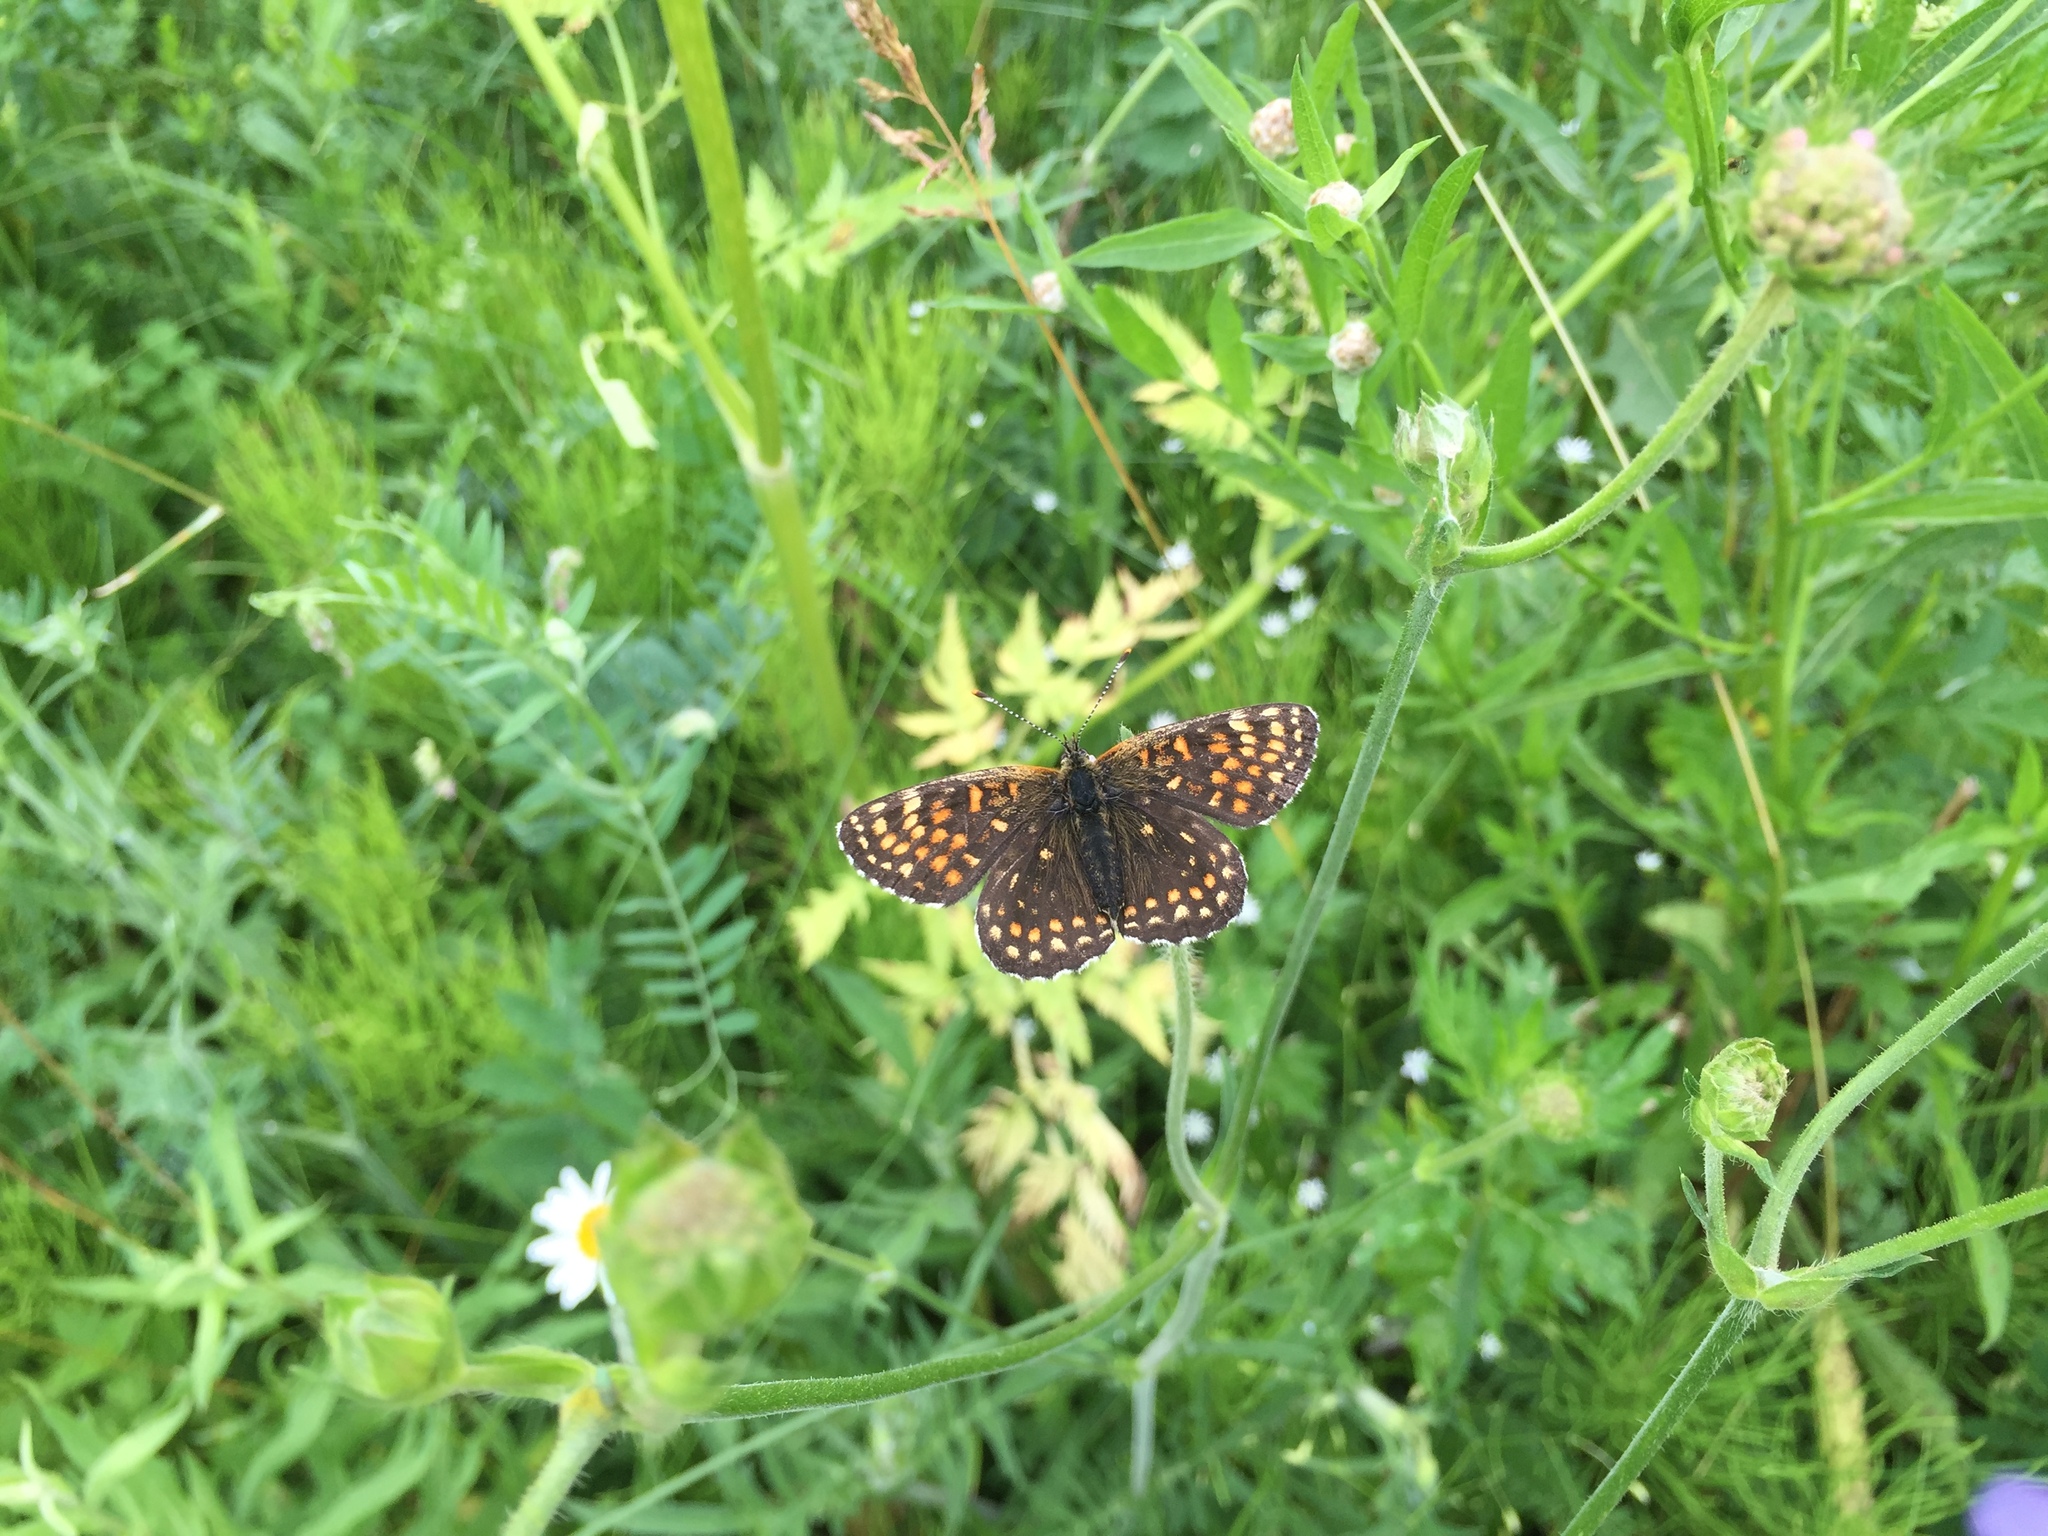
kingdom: Animalia
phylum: Arthropoda
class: Insecta
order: Lepidoptera
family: Nymphalidae
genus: Melitaea
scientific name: Melitaea diamina
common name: False heath fritillary
